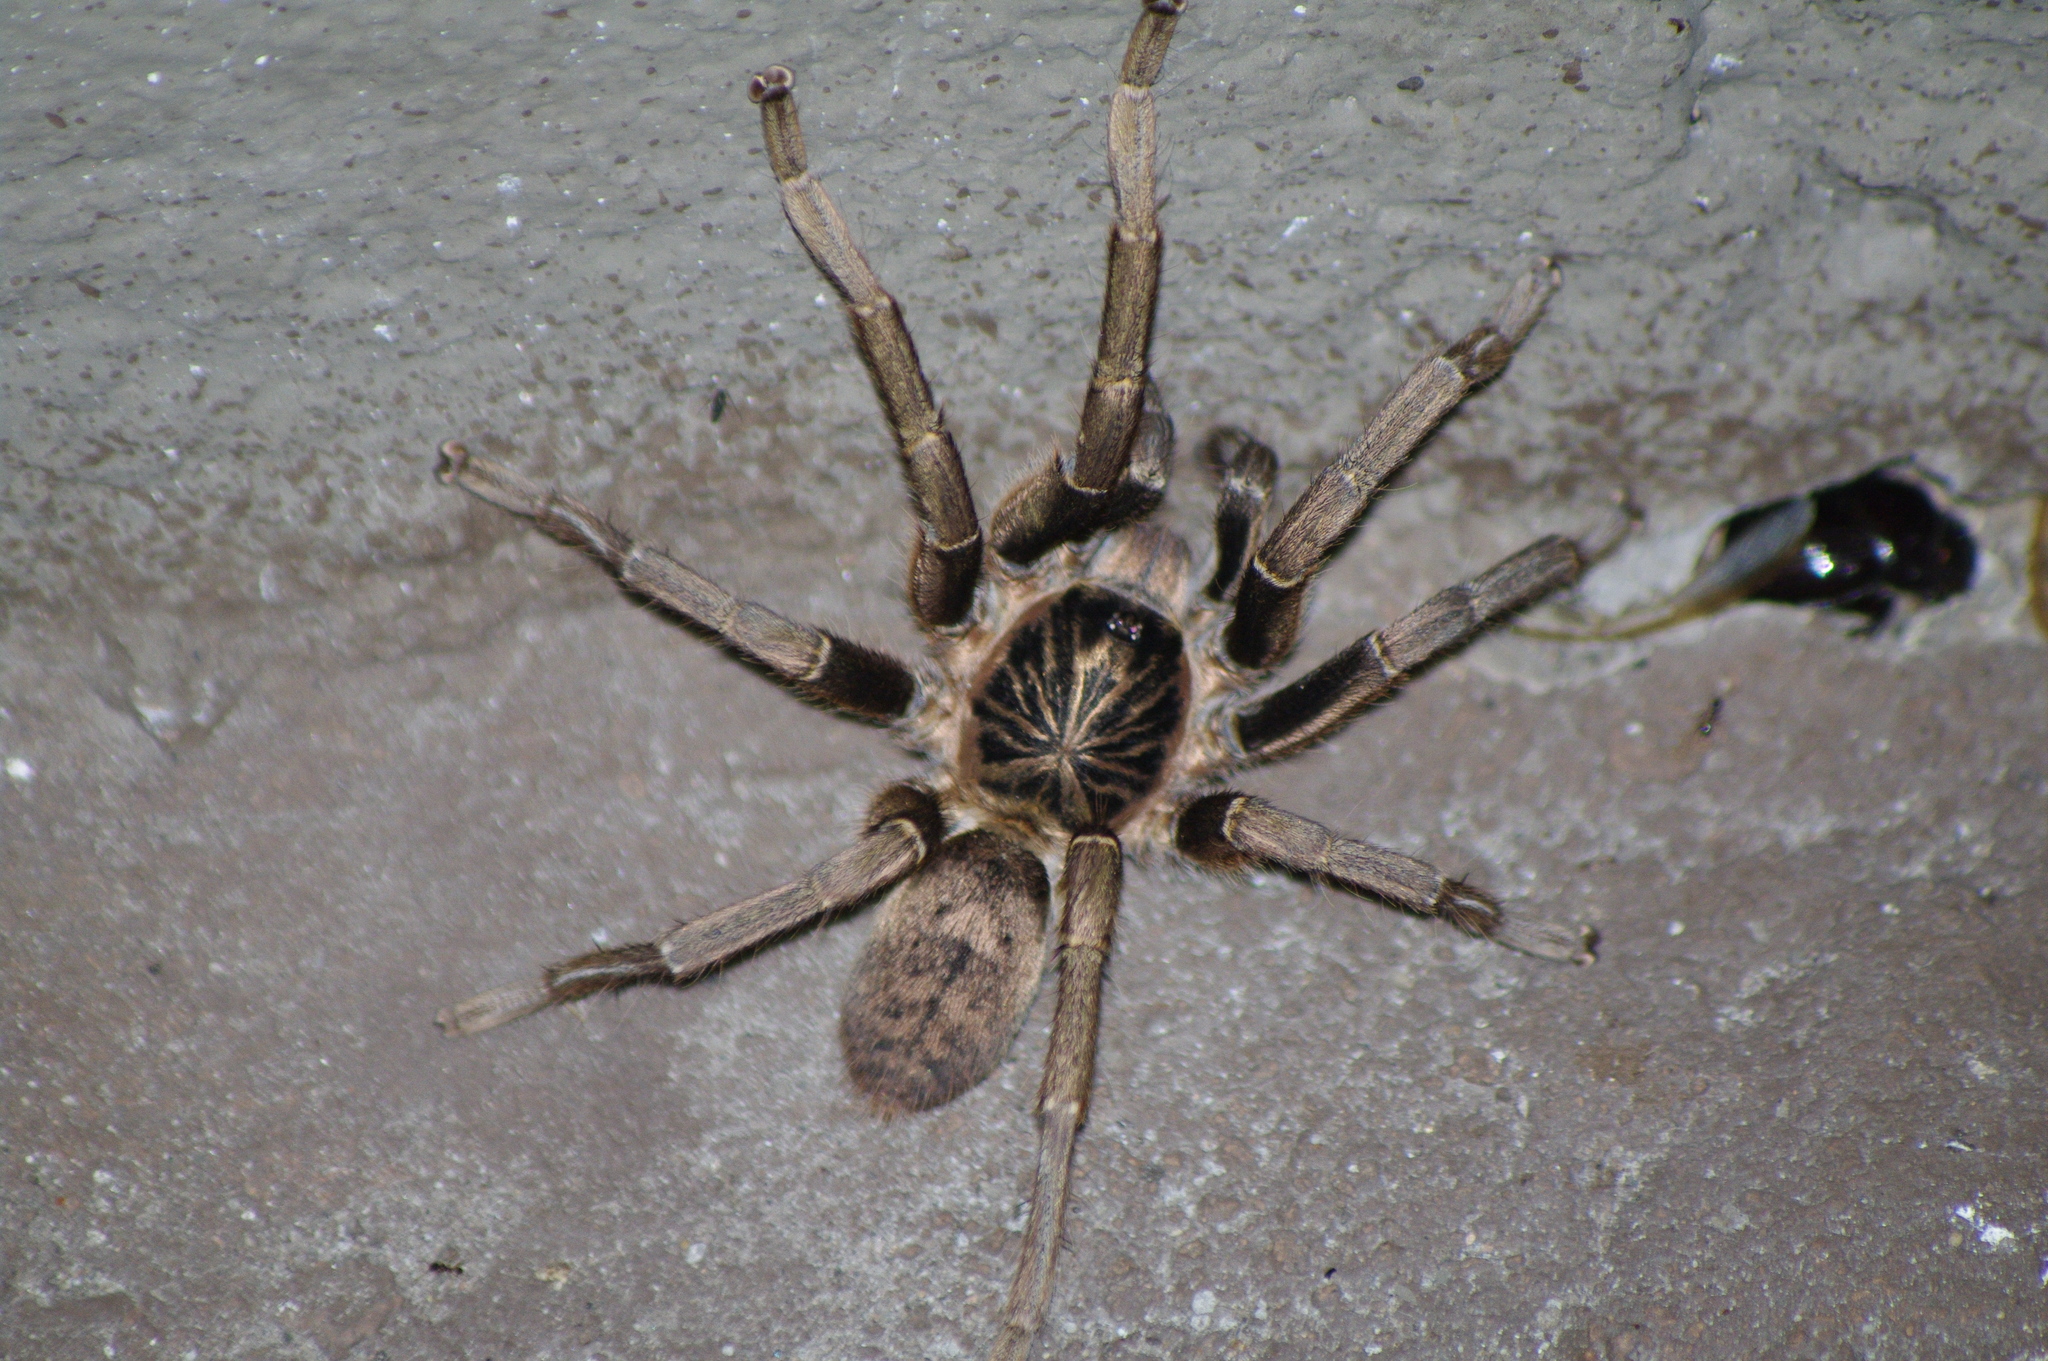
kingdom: Animalia
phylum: Arthropoda
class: Arachnida
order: Araneae
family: Theraphosidae
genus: Idiothele
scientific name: Idiothele nigrofulva
